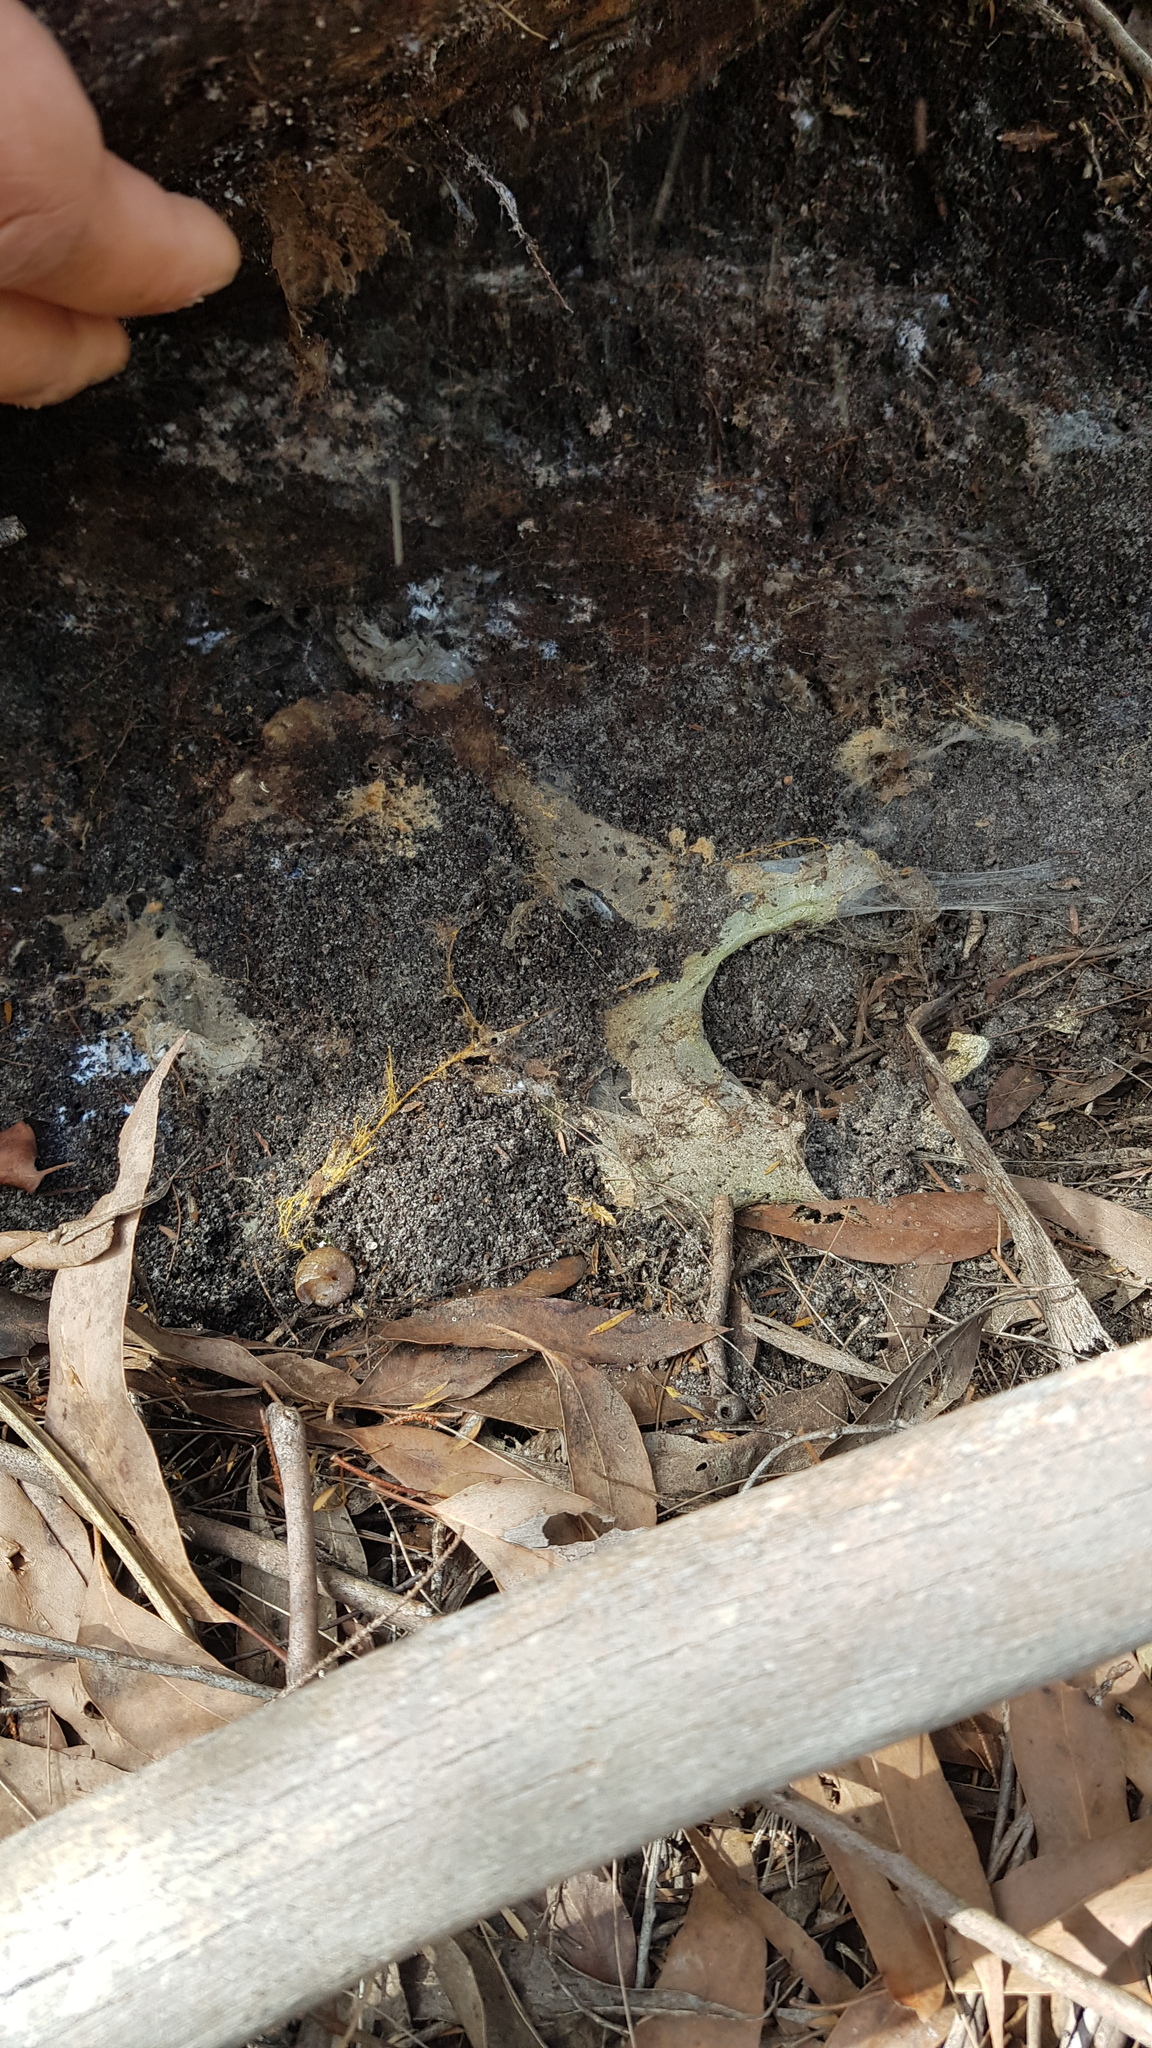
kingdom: Animalia
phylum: Arthropoda
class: Arachnida
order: Araneae
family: Atracidae
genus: Atrax
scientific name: Atrax robustus
